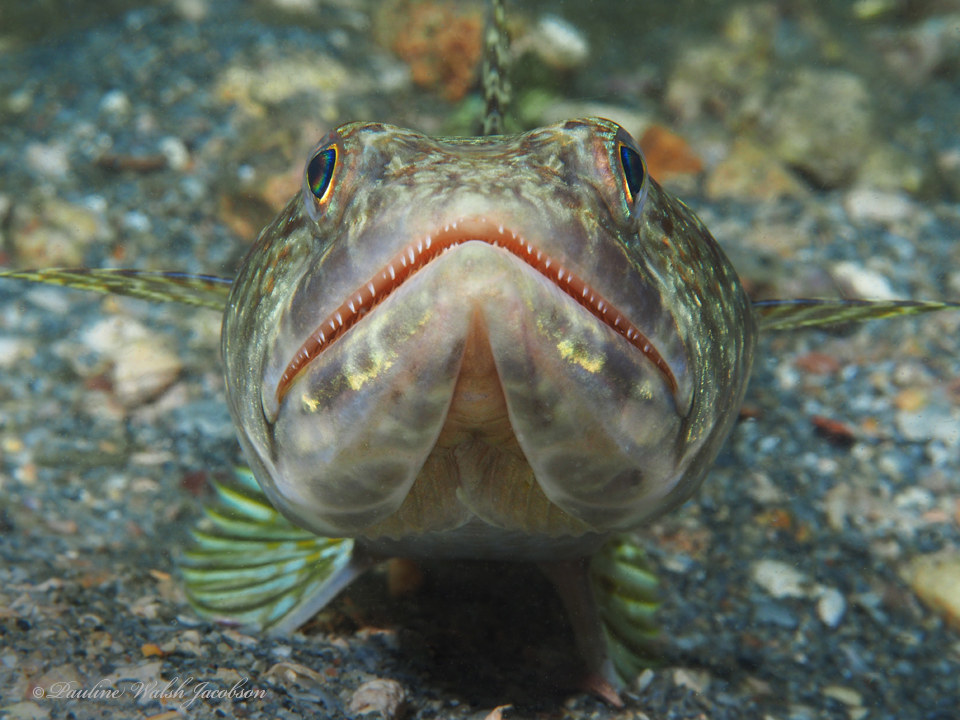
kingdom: Animalia
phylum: Chordata
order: Aulopiformes
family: Synodontidae
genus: Synodus
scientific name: Synodus intermedius
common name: Sand diver
